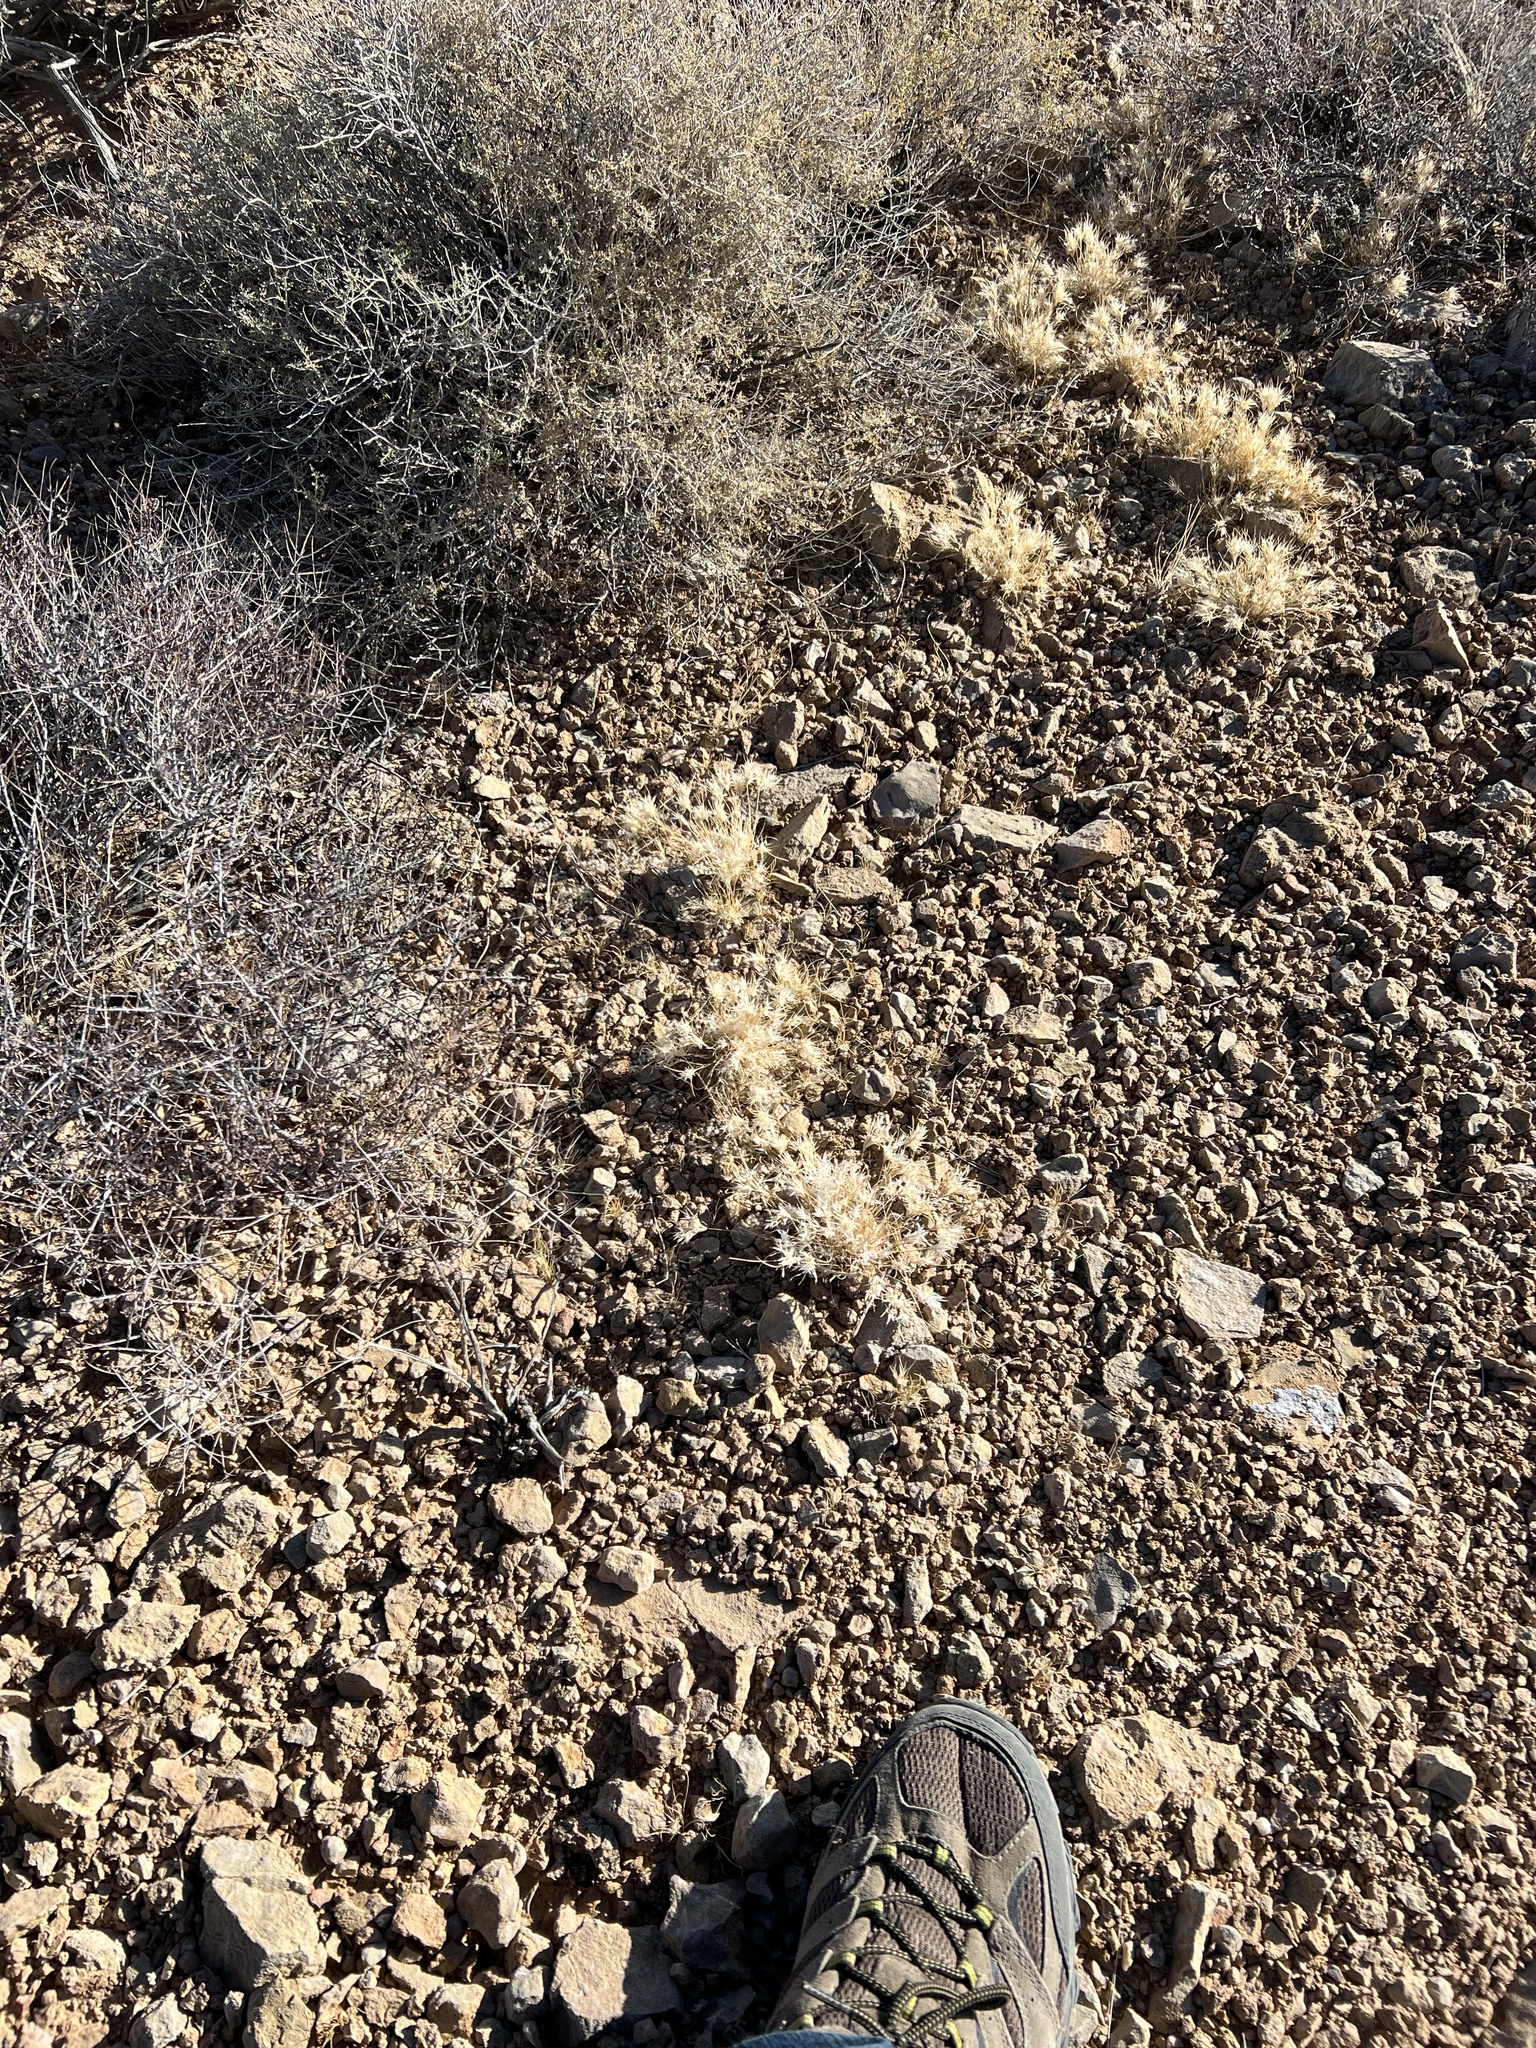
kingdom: Plantae
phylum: Tracheophyta
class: Liliopsida
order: Poales
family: Poaceae
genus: Dasyochloa
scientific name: Dasyochloa pulchella
